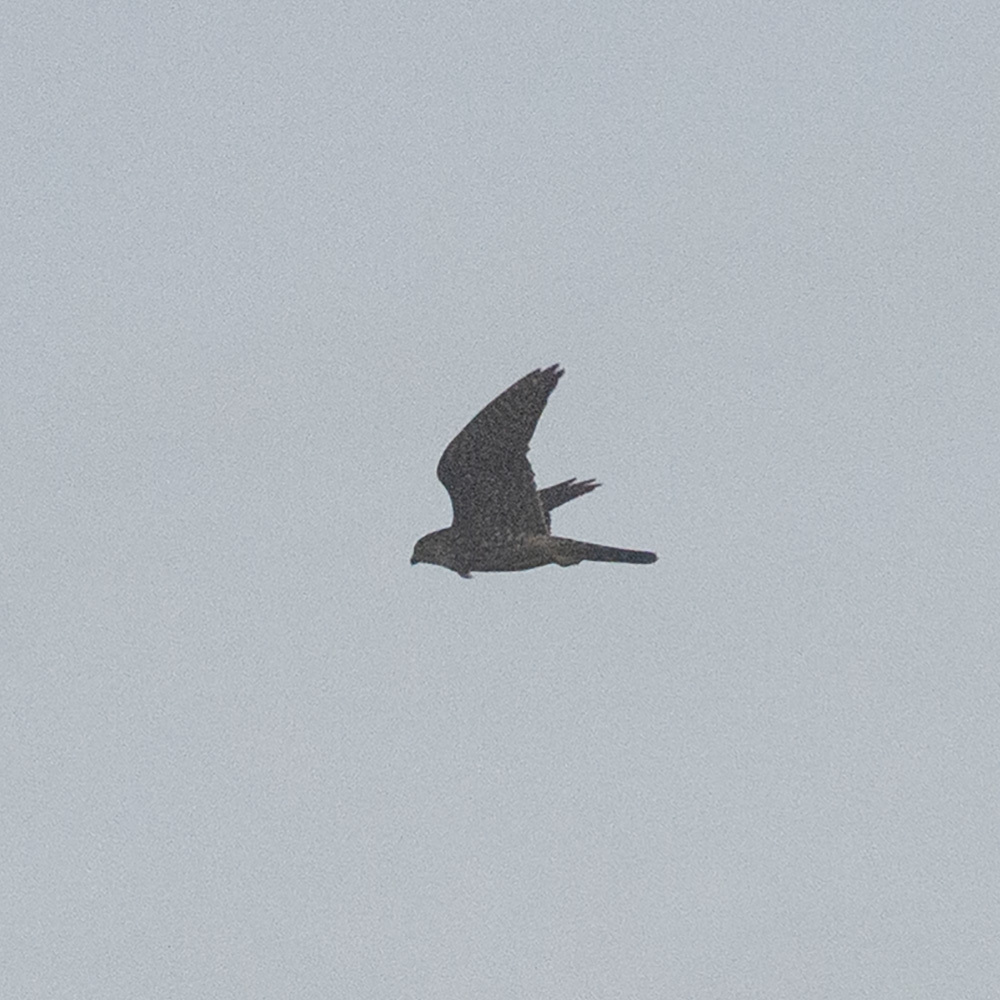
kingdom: Animalia
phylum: Chordata
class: Aves
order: Falconiformes
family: Falconidae
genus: Falco
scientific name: Falco columbarius
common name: Merlin
